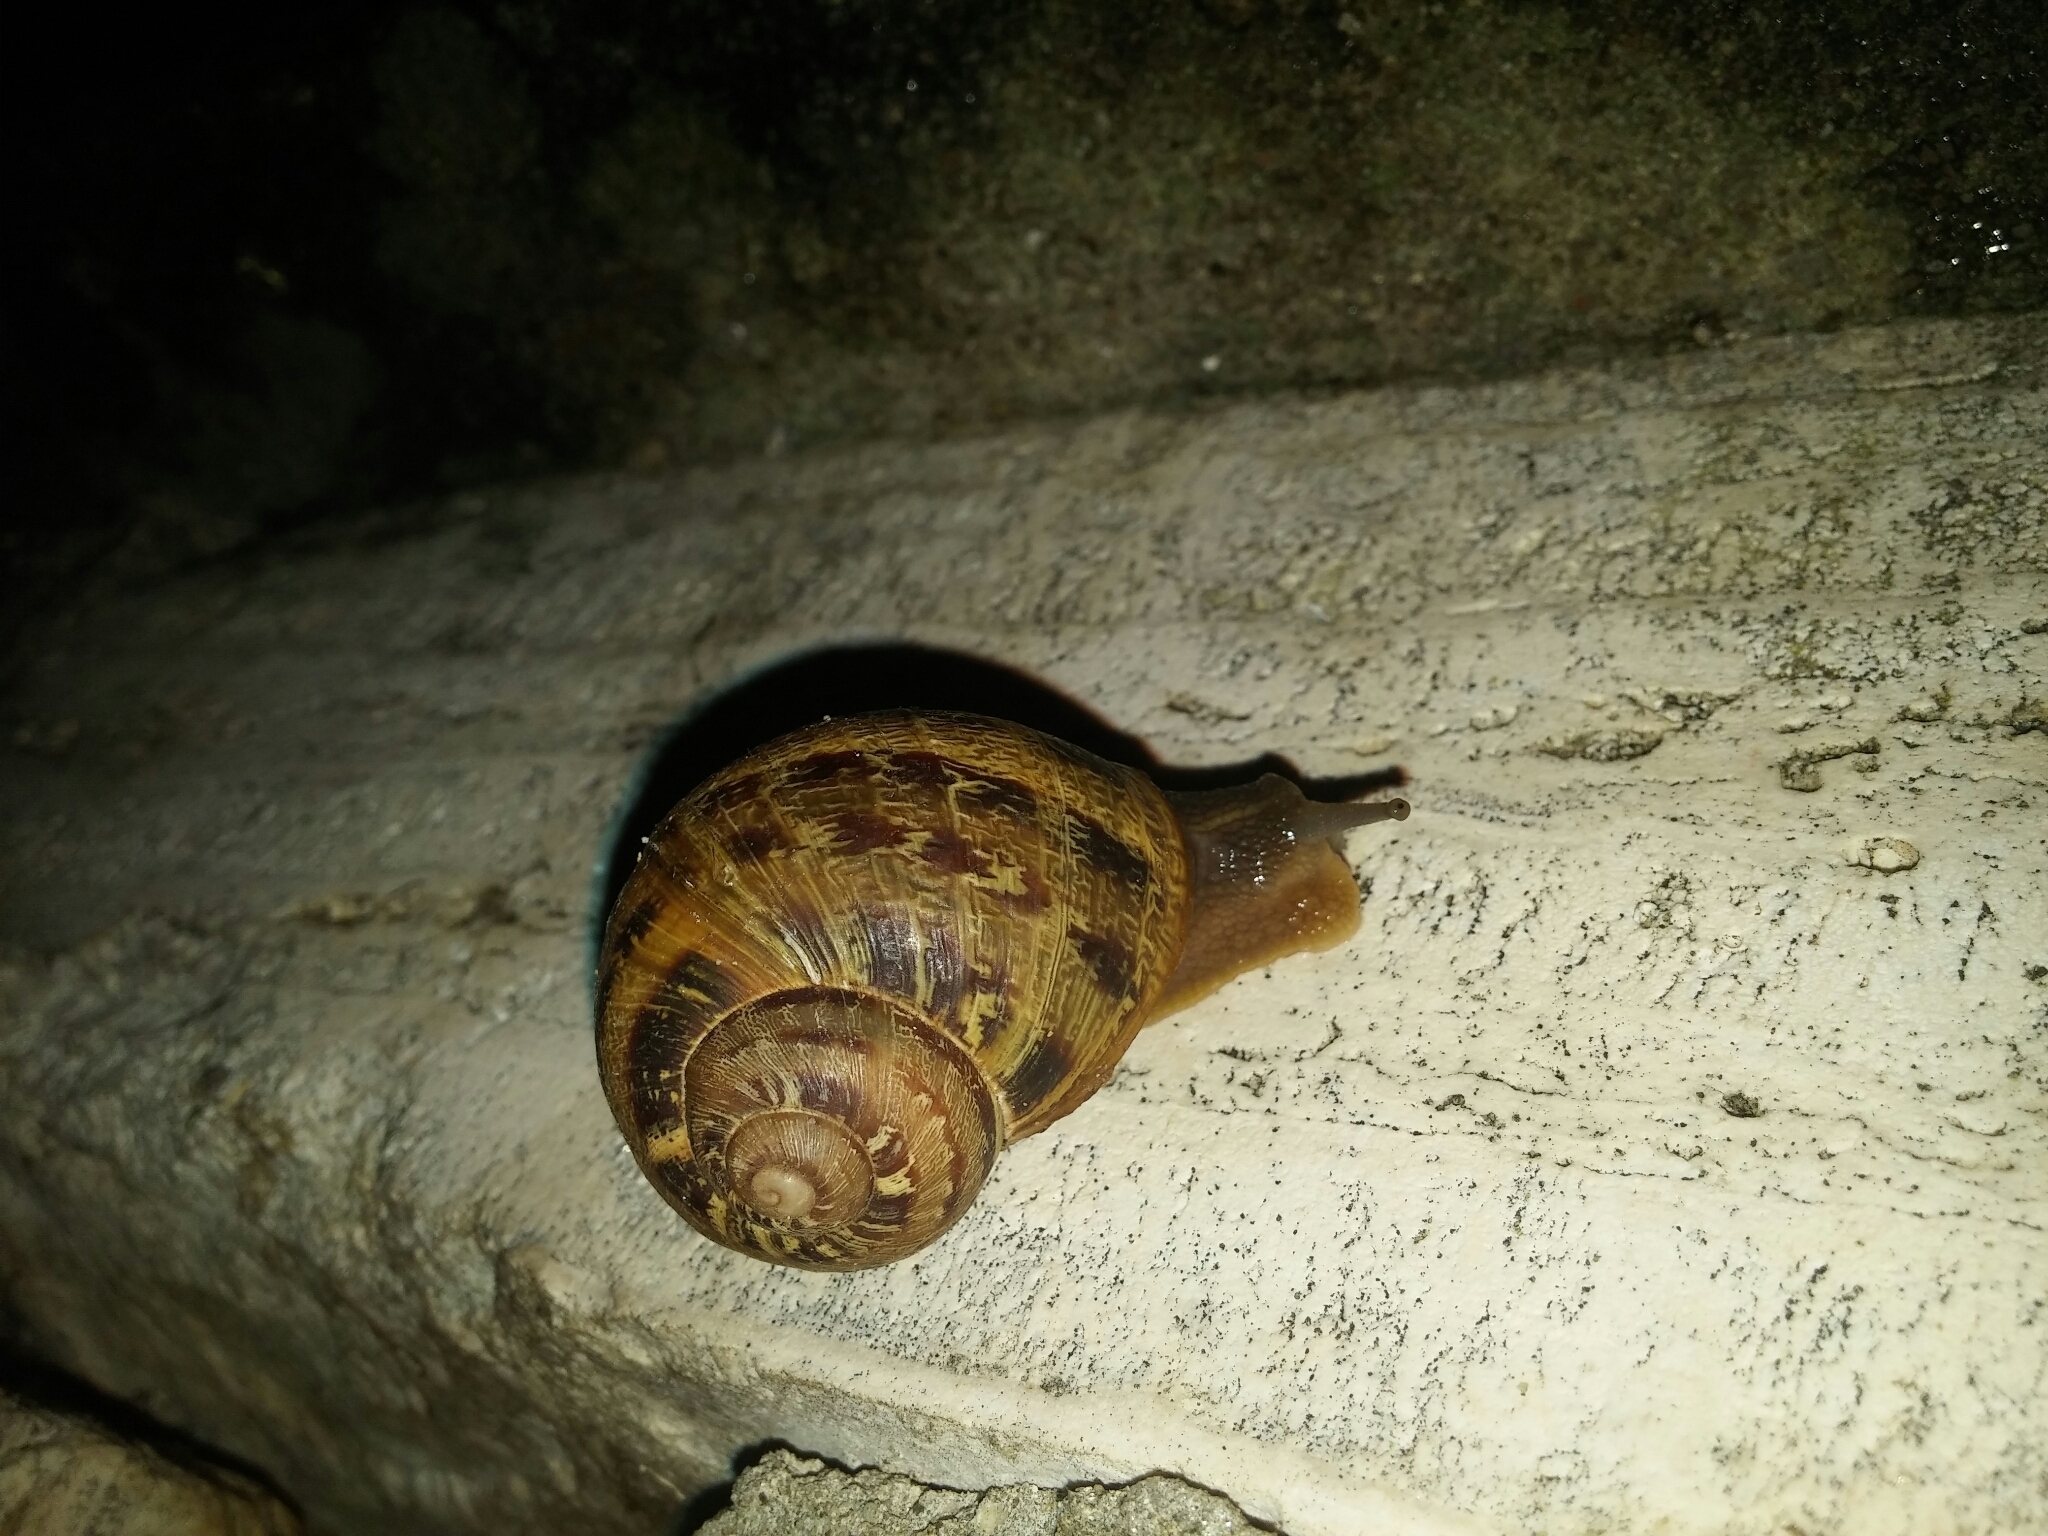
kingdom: Animalia
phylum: Mollusca
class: Gastropoda
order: Stylommatophora
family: Helicidae
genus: Cornu
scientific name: Cornu aspersum
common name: Brown garden snail
